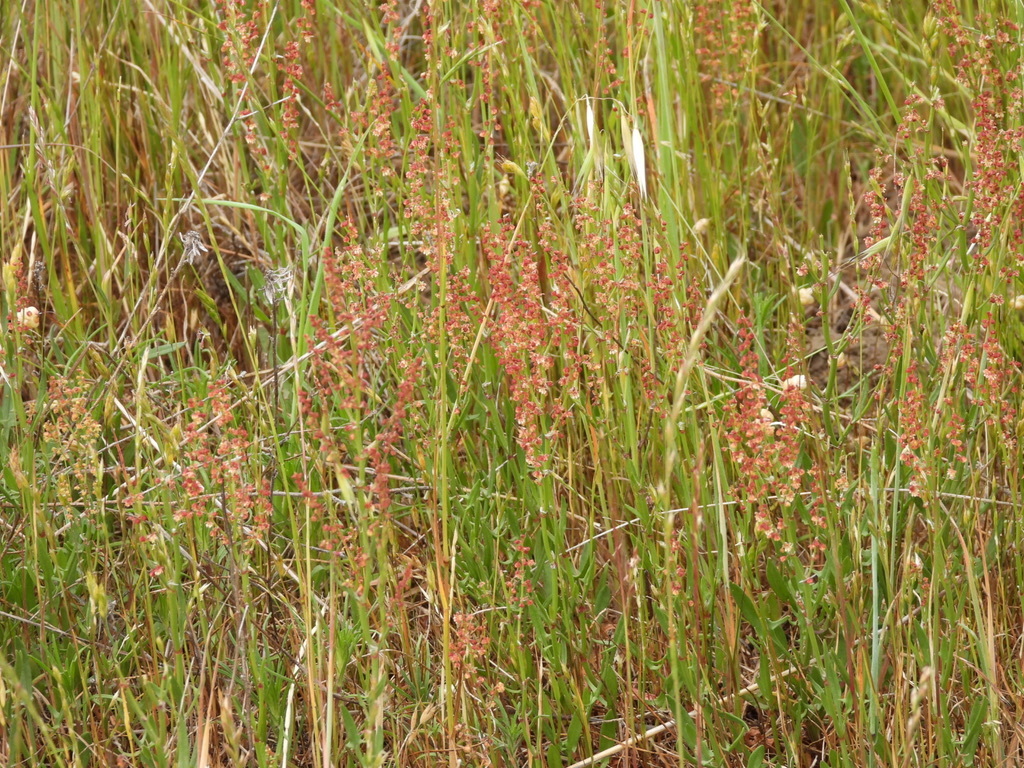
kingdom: Plantae
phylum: Tracheophyta
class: Magnoliopsida
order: Caryophyllales
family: Polygonaceae
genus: Rumex
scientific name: Rumex acetosella
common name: Common sheep sorrel
